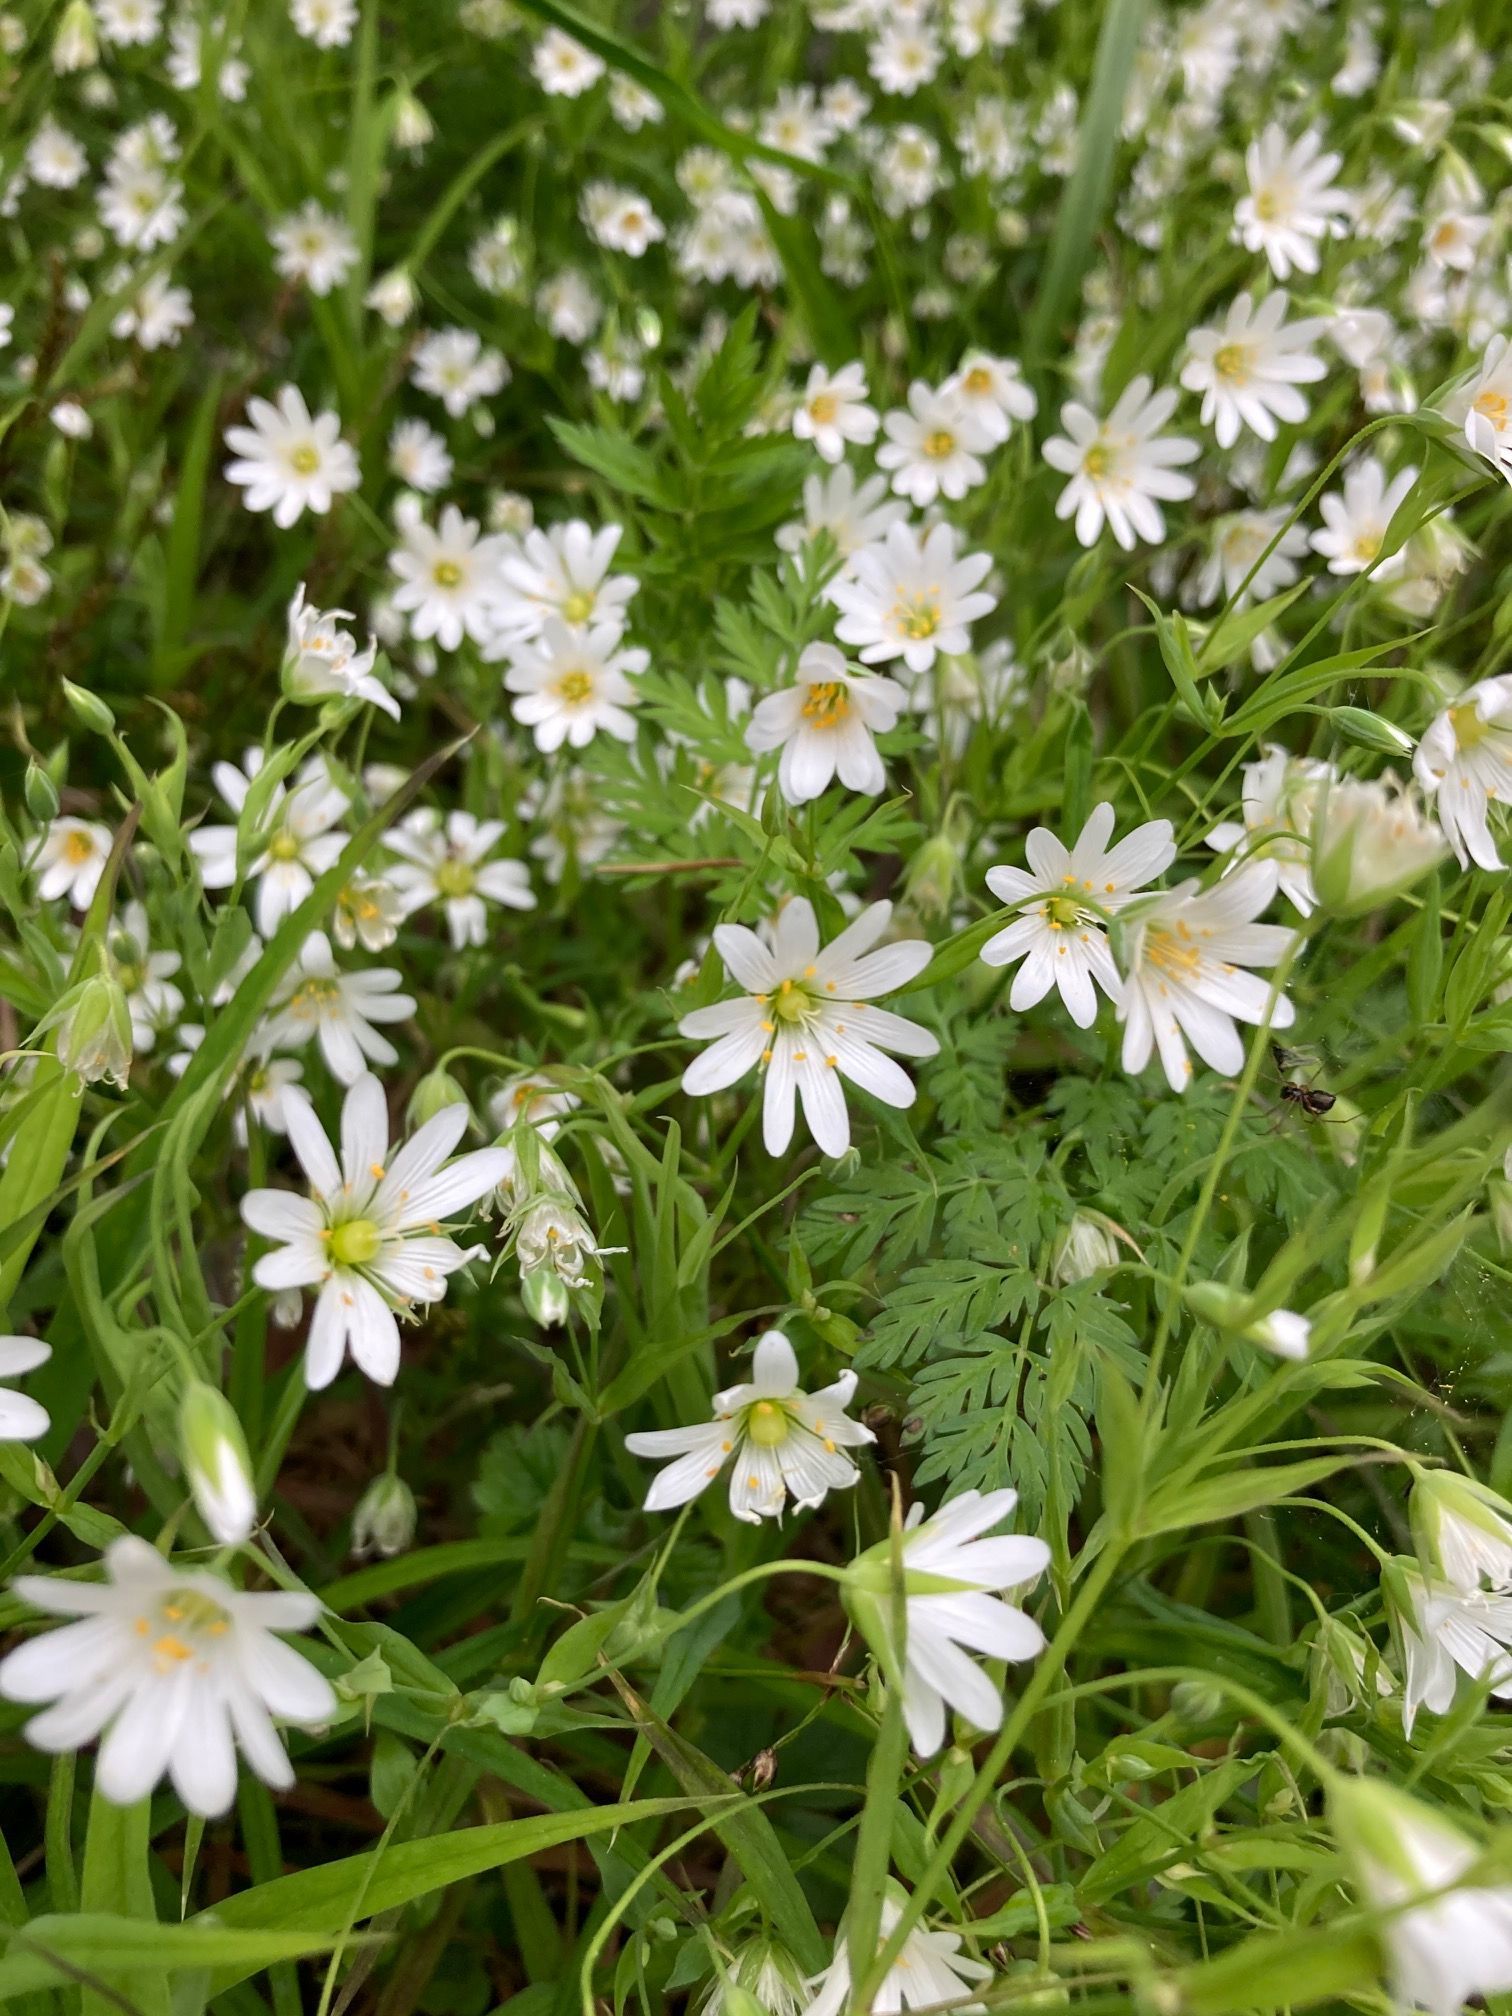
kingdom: Plantae
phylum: Tracheophyta
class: Magnoliopsida
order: Caryophyllales
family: Caryophyllaceae
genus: Rabelera
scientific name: Rabelera holostea
